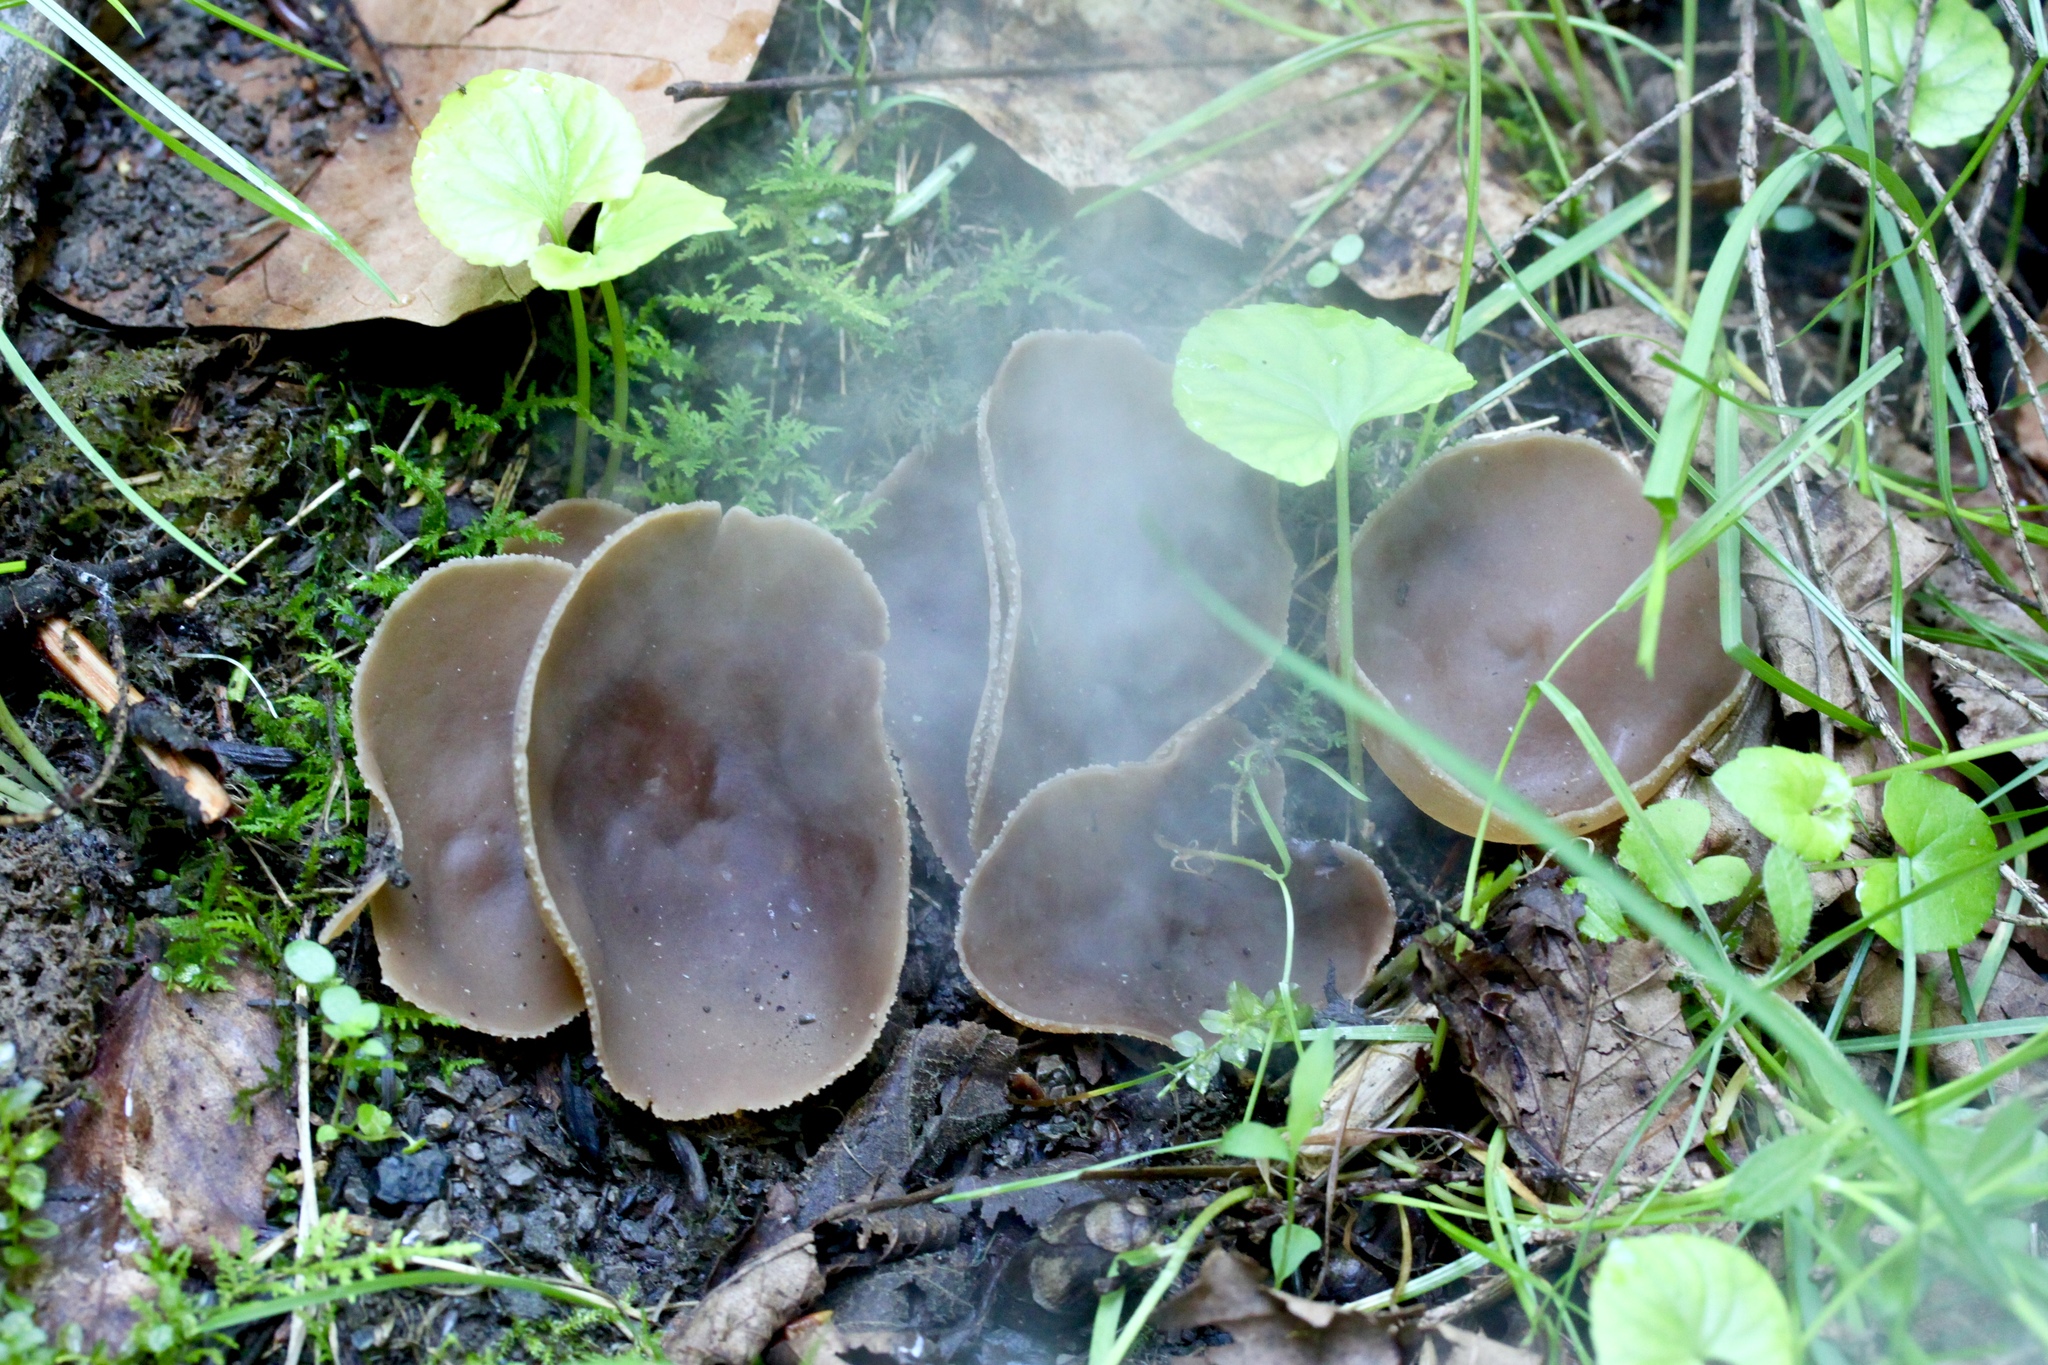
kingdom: Fungi
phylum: Ascomycota
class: Pezizomycetes
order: Pezizales
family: Pezizaceae
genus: Phylloscypha
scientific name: Phylloscypha phyllogena
